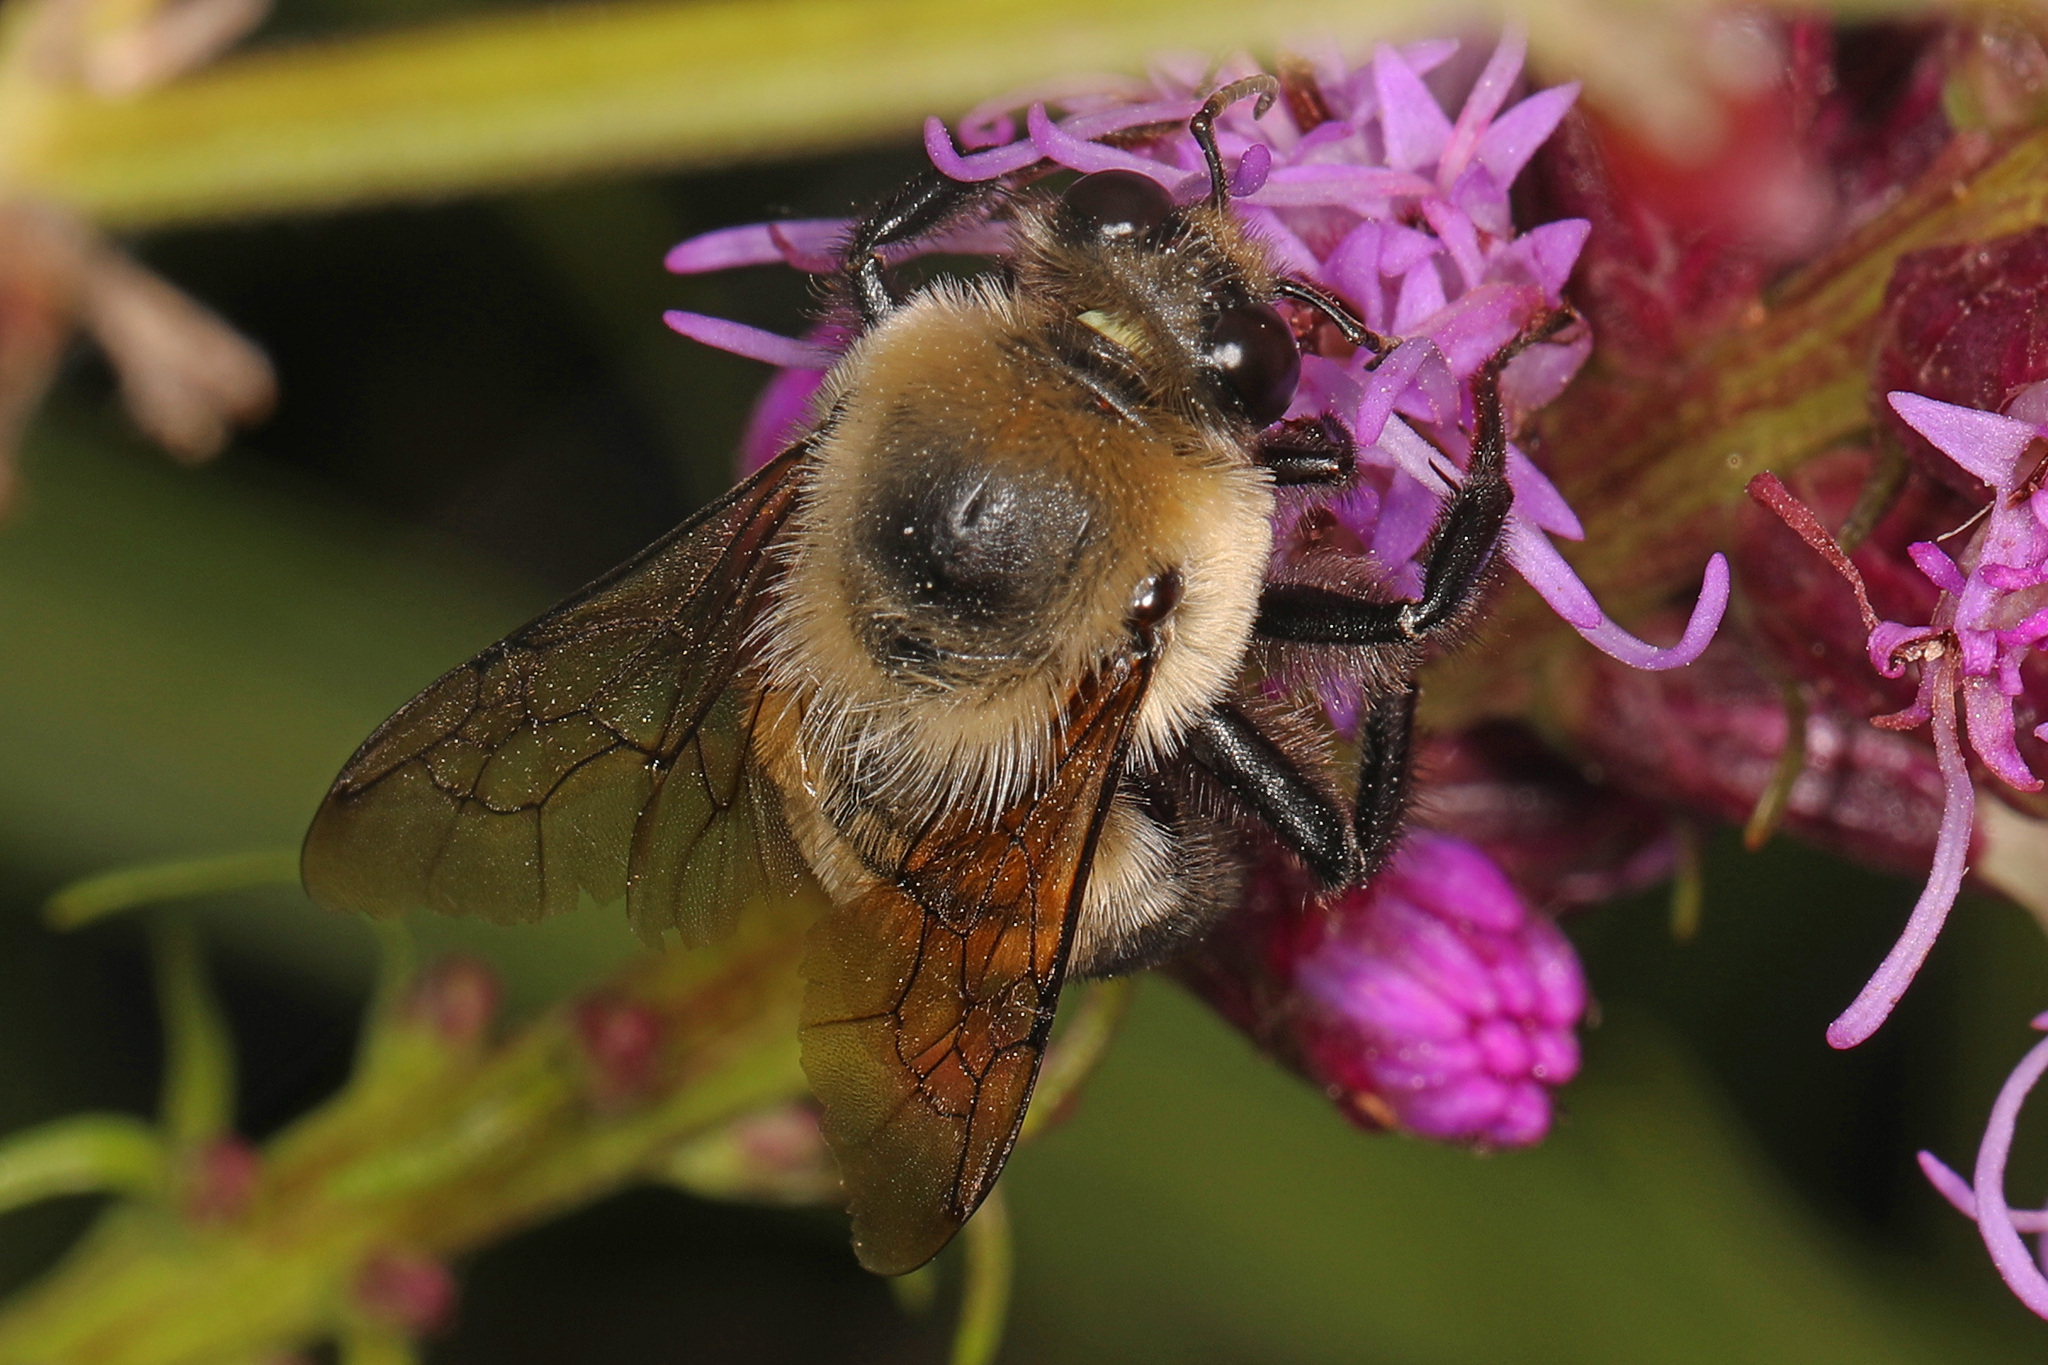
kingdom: Animalia
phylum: Arthropoda
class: Insecta
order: Hymenoptera
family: Apidae
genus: Bombus
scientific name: Bombus griseocollis
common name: Brown-belted bumble bee
